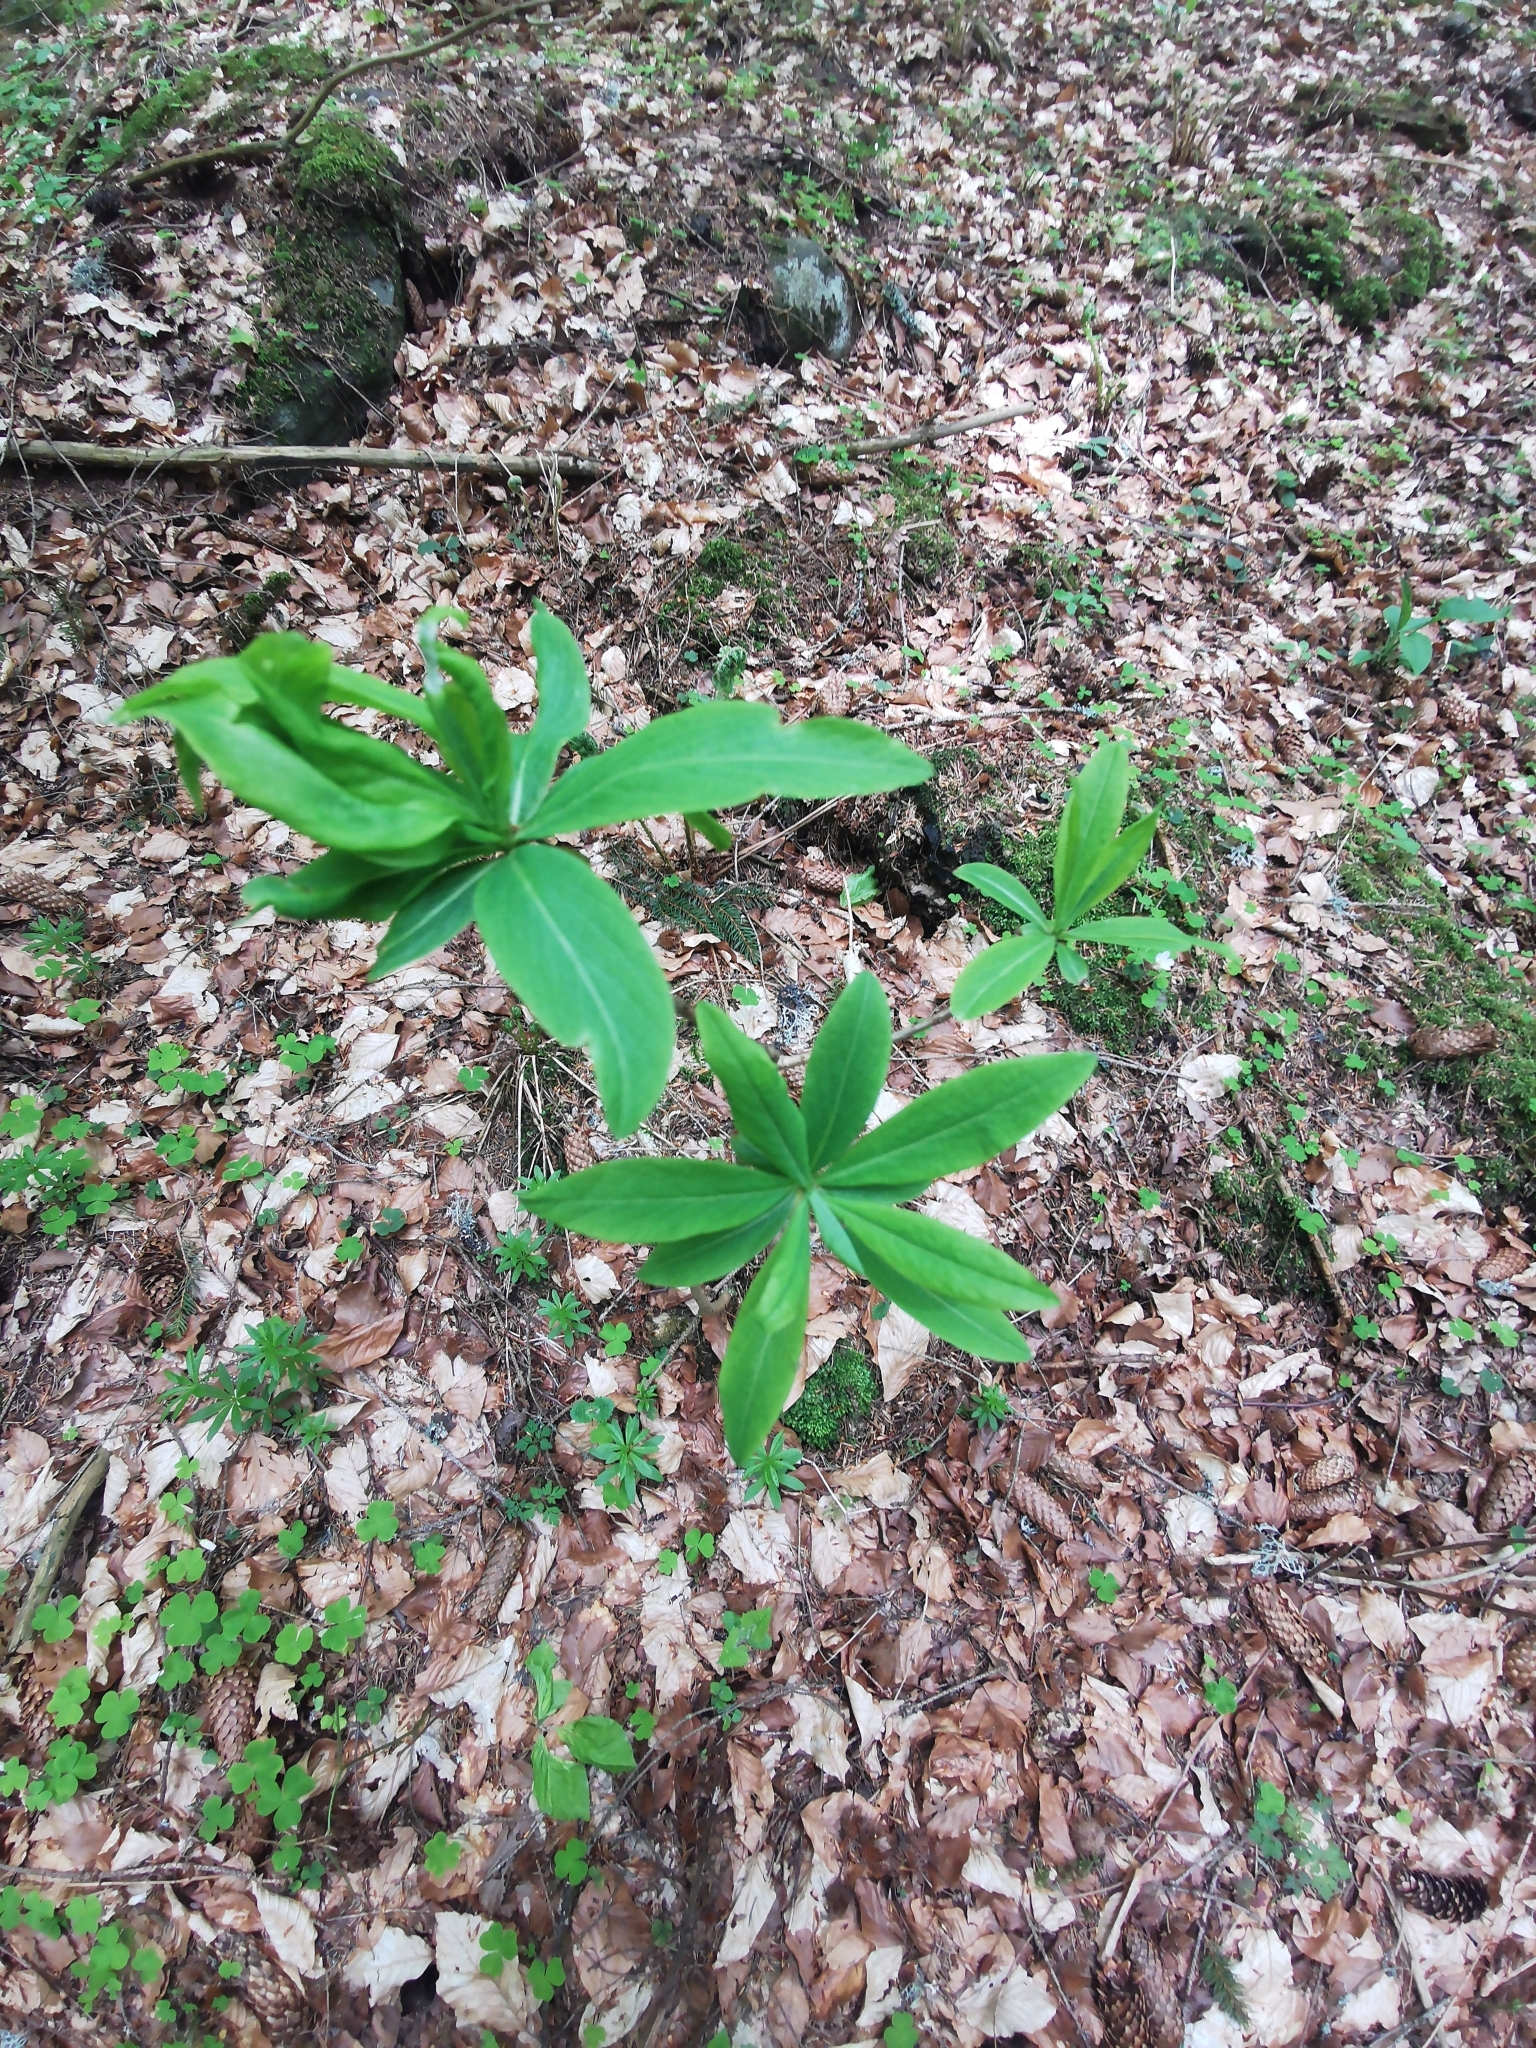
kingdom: Plantae
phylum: Tracheophyta
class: Magnoliopsida
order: Malvales
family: Thymelaeaceae
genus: Daphne
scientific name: Daphne mezereum
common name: Mezereon
